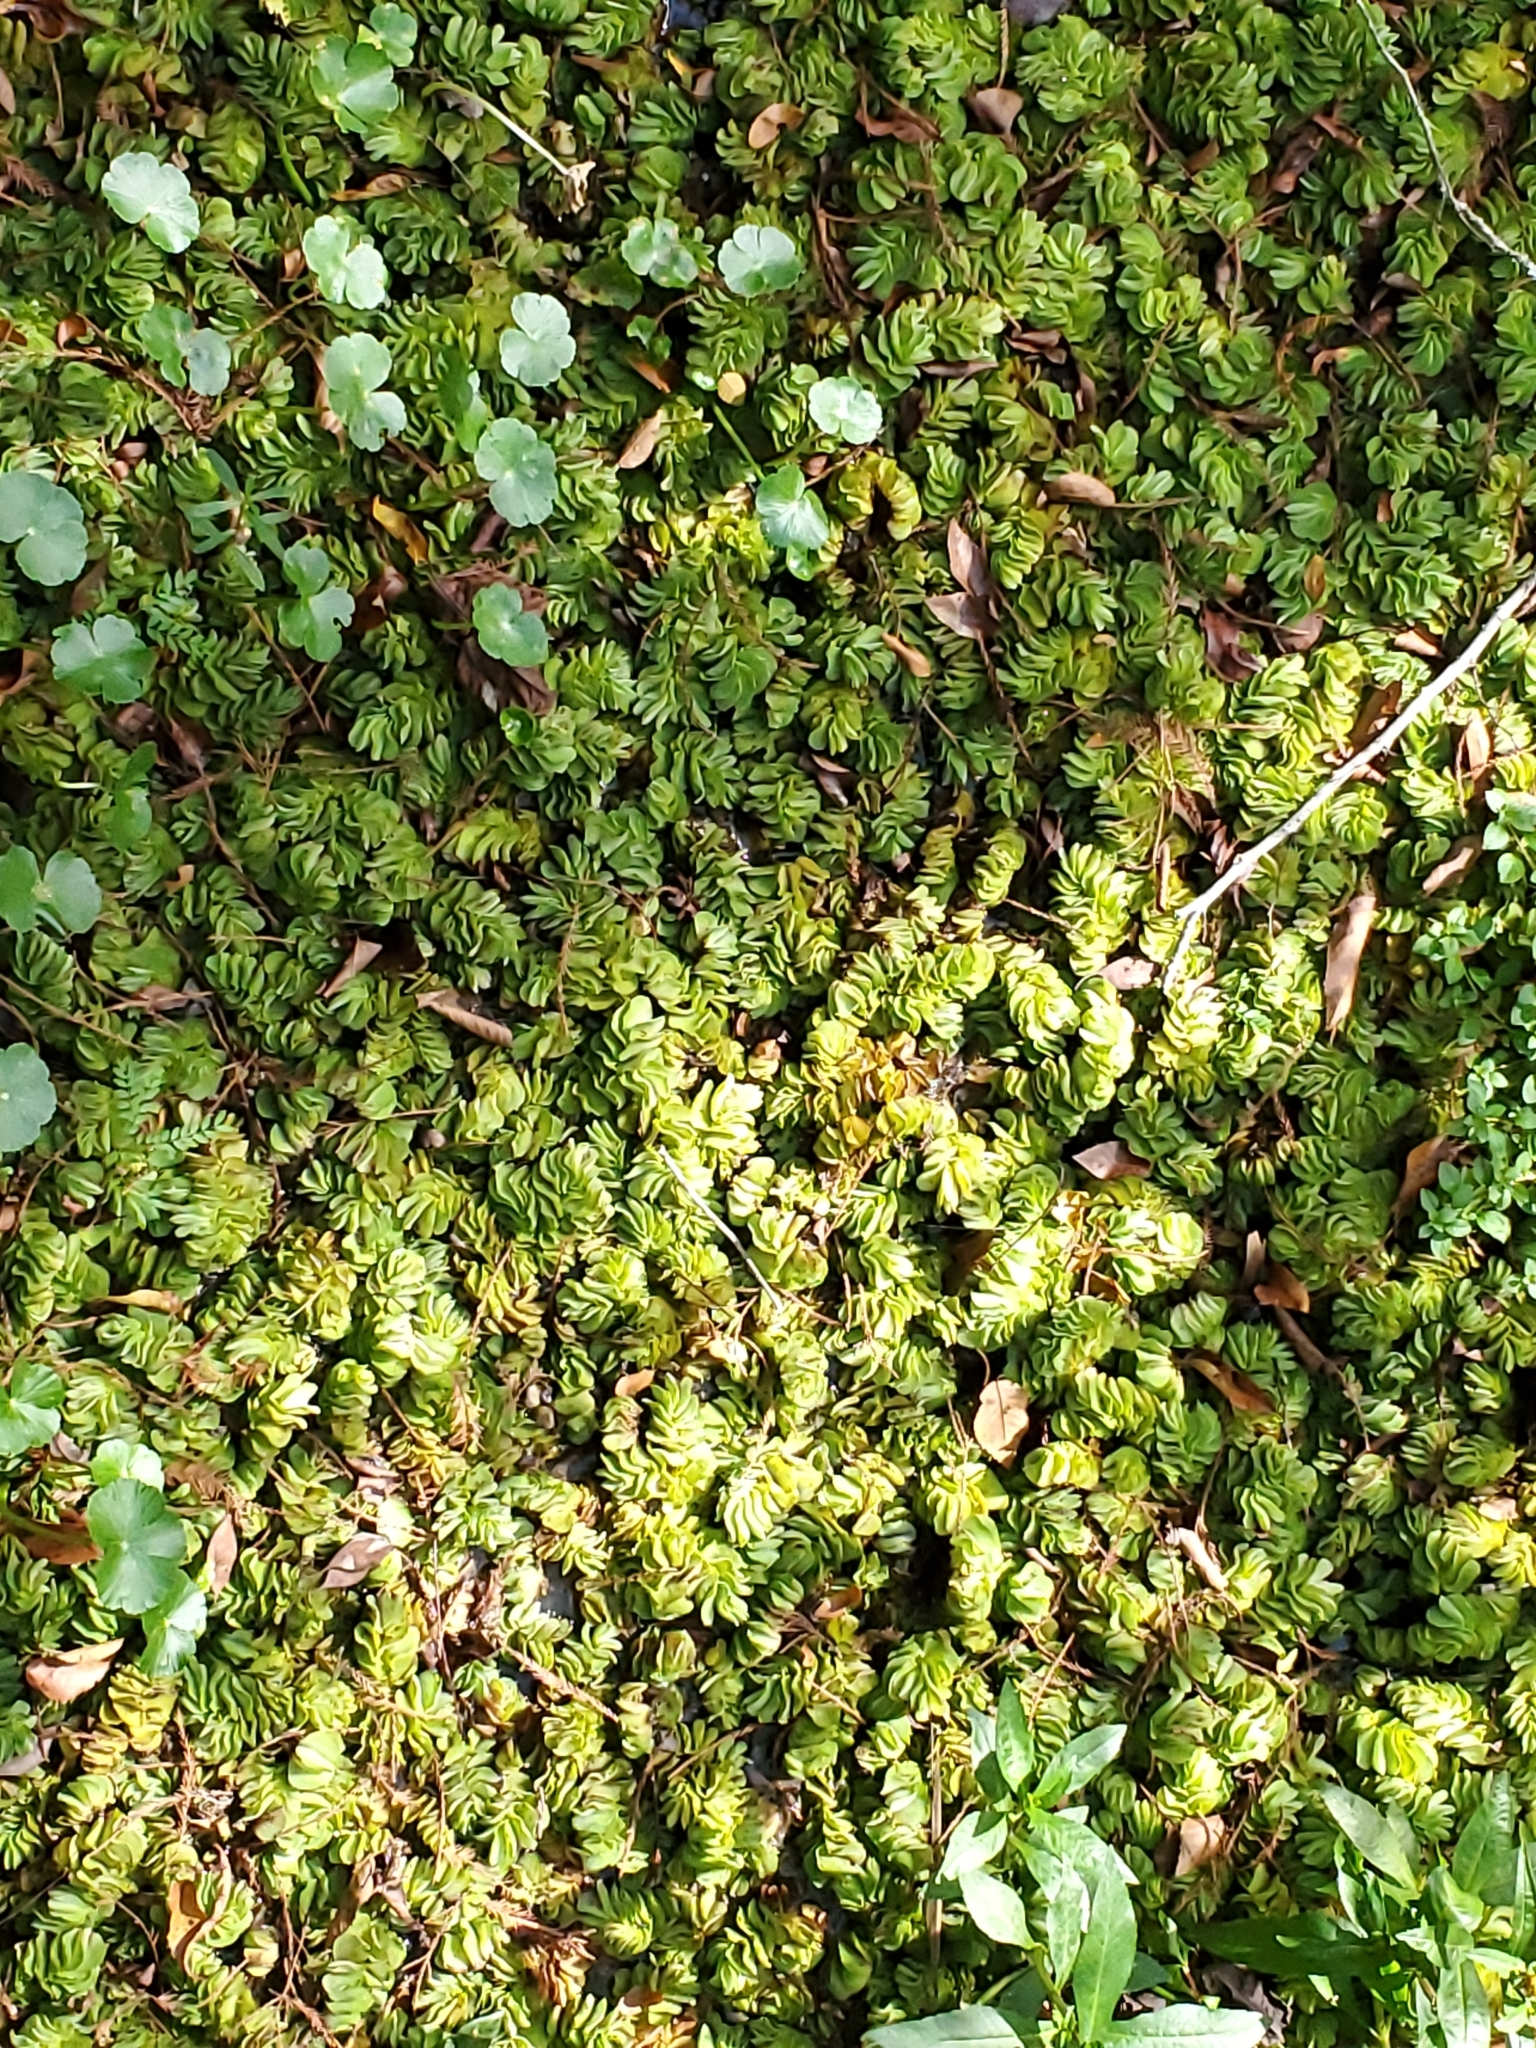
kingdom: Plantae
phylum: Tracheophyta
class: Polypodiopsida
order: Salviniales
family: Salviniaceae
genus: Salvinia
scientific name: Salvinia molesta
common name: Kariba weed
